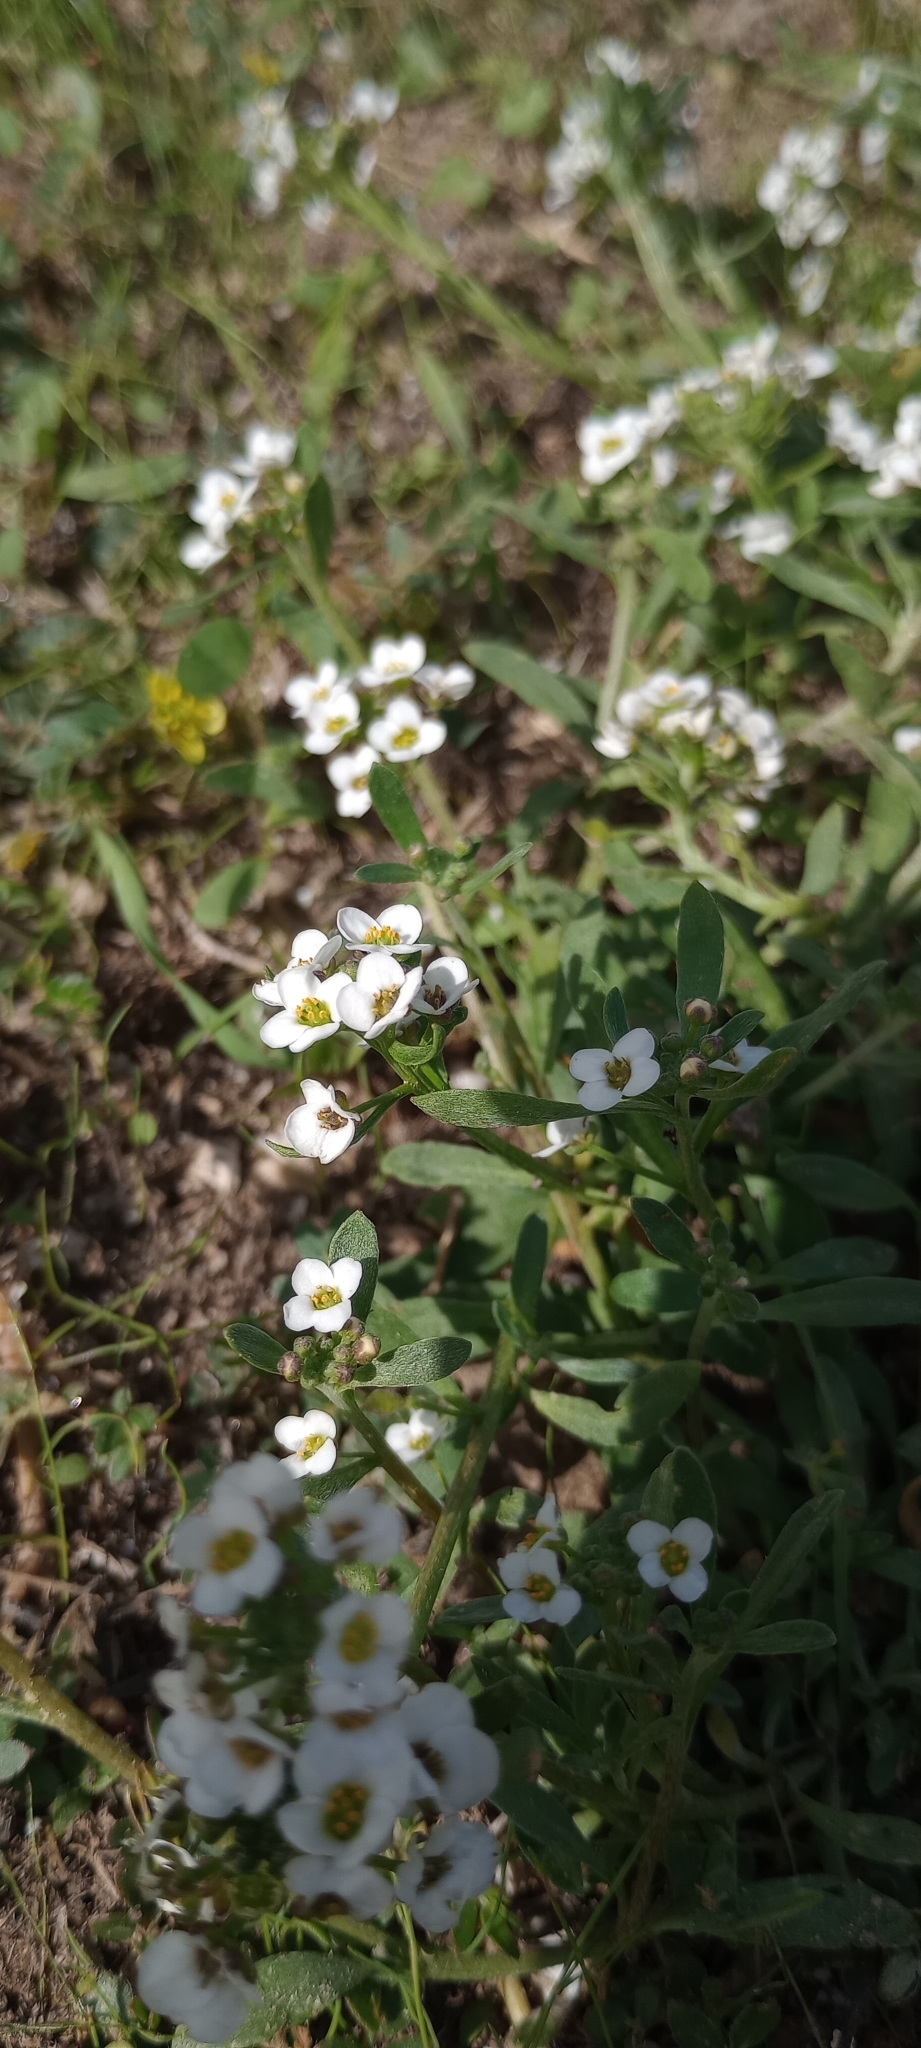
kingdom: Plantae
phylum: Tracheophyta
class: Magnoliopsida
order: Brassicales
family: Brassicaceae
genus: Lobularia
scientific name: Lobularia maritima
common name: Sweet alison
